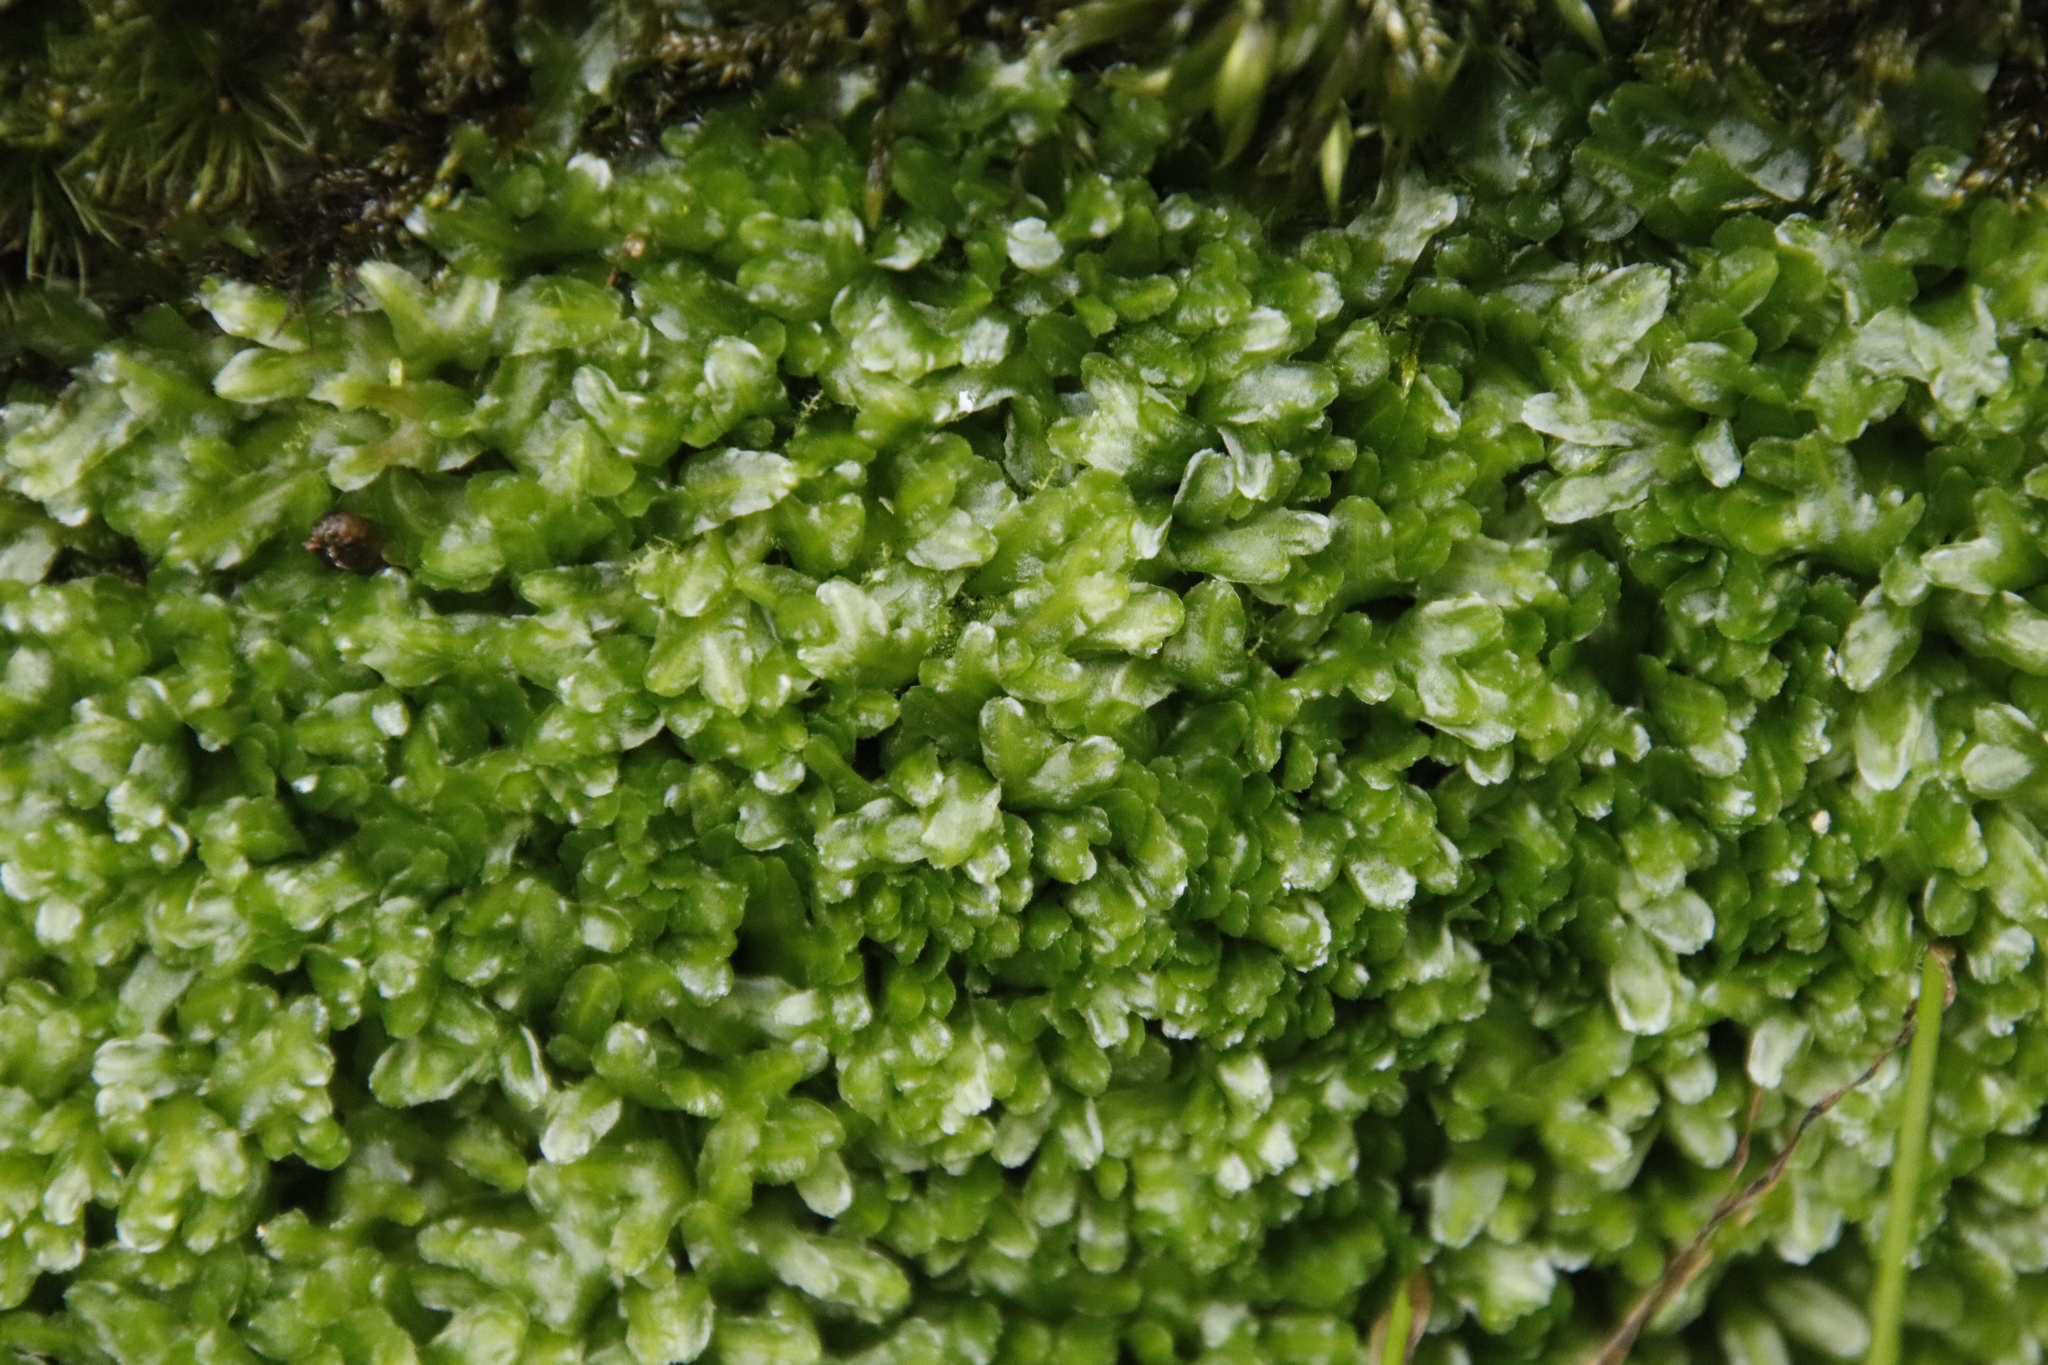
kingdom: Plantae
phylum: Marchantiophyta
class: Jungermanniopsida
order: Pallaviciniales
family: Pallaviciniaceae
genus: Symphyogyna
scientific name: Symphyogyna podophylla
